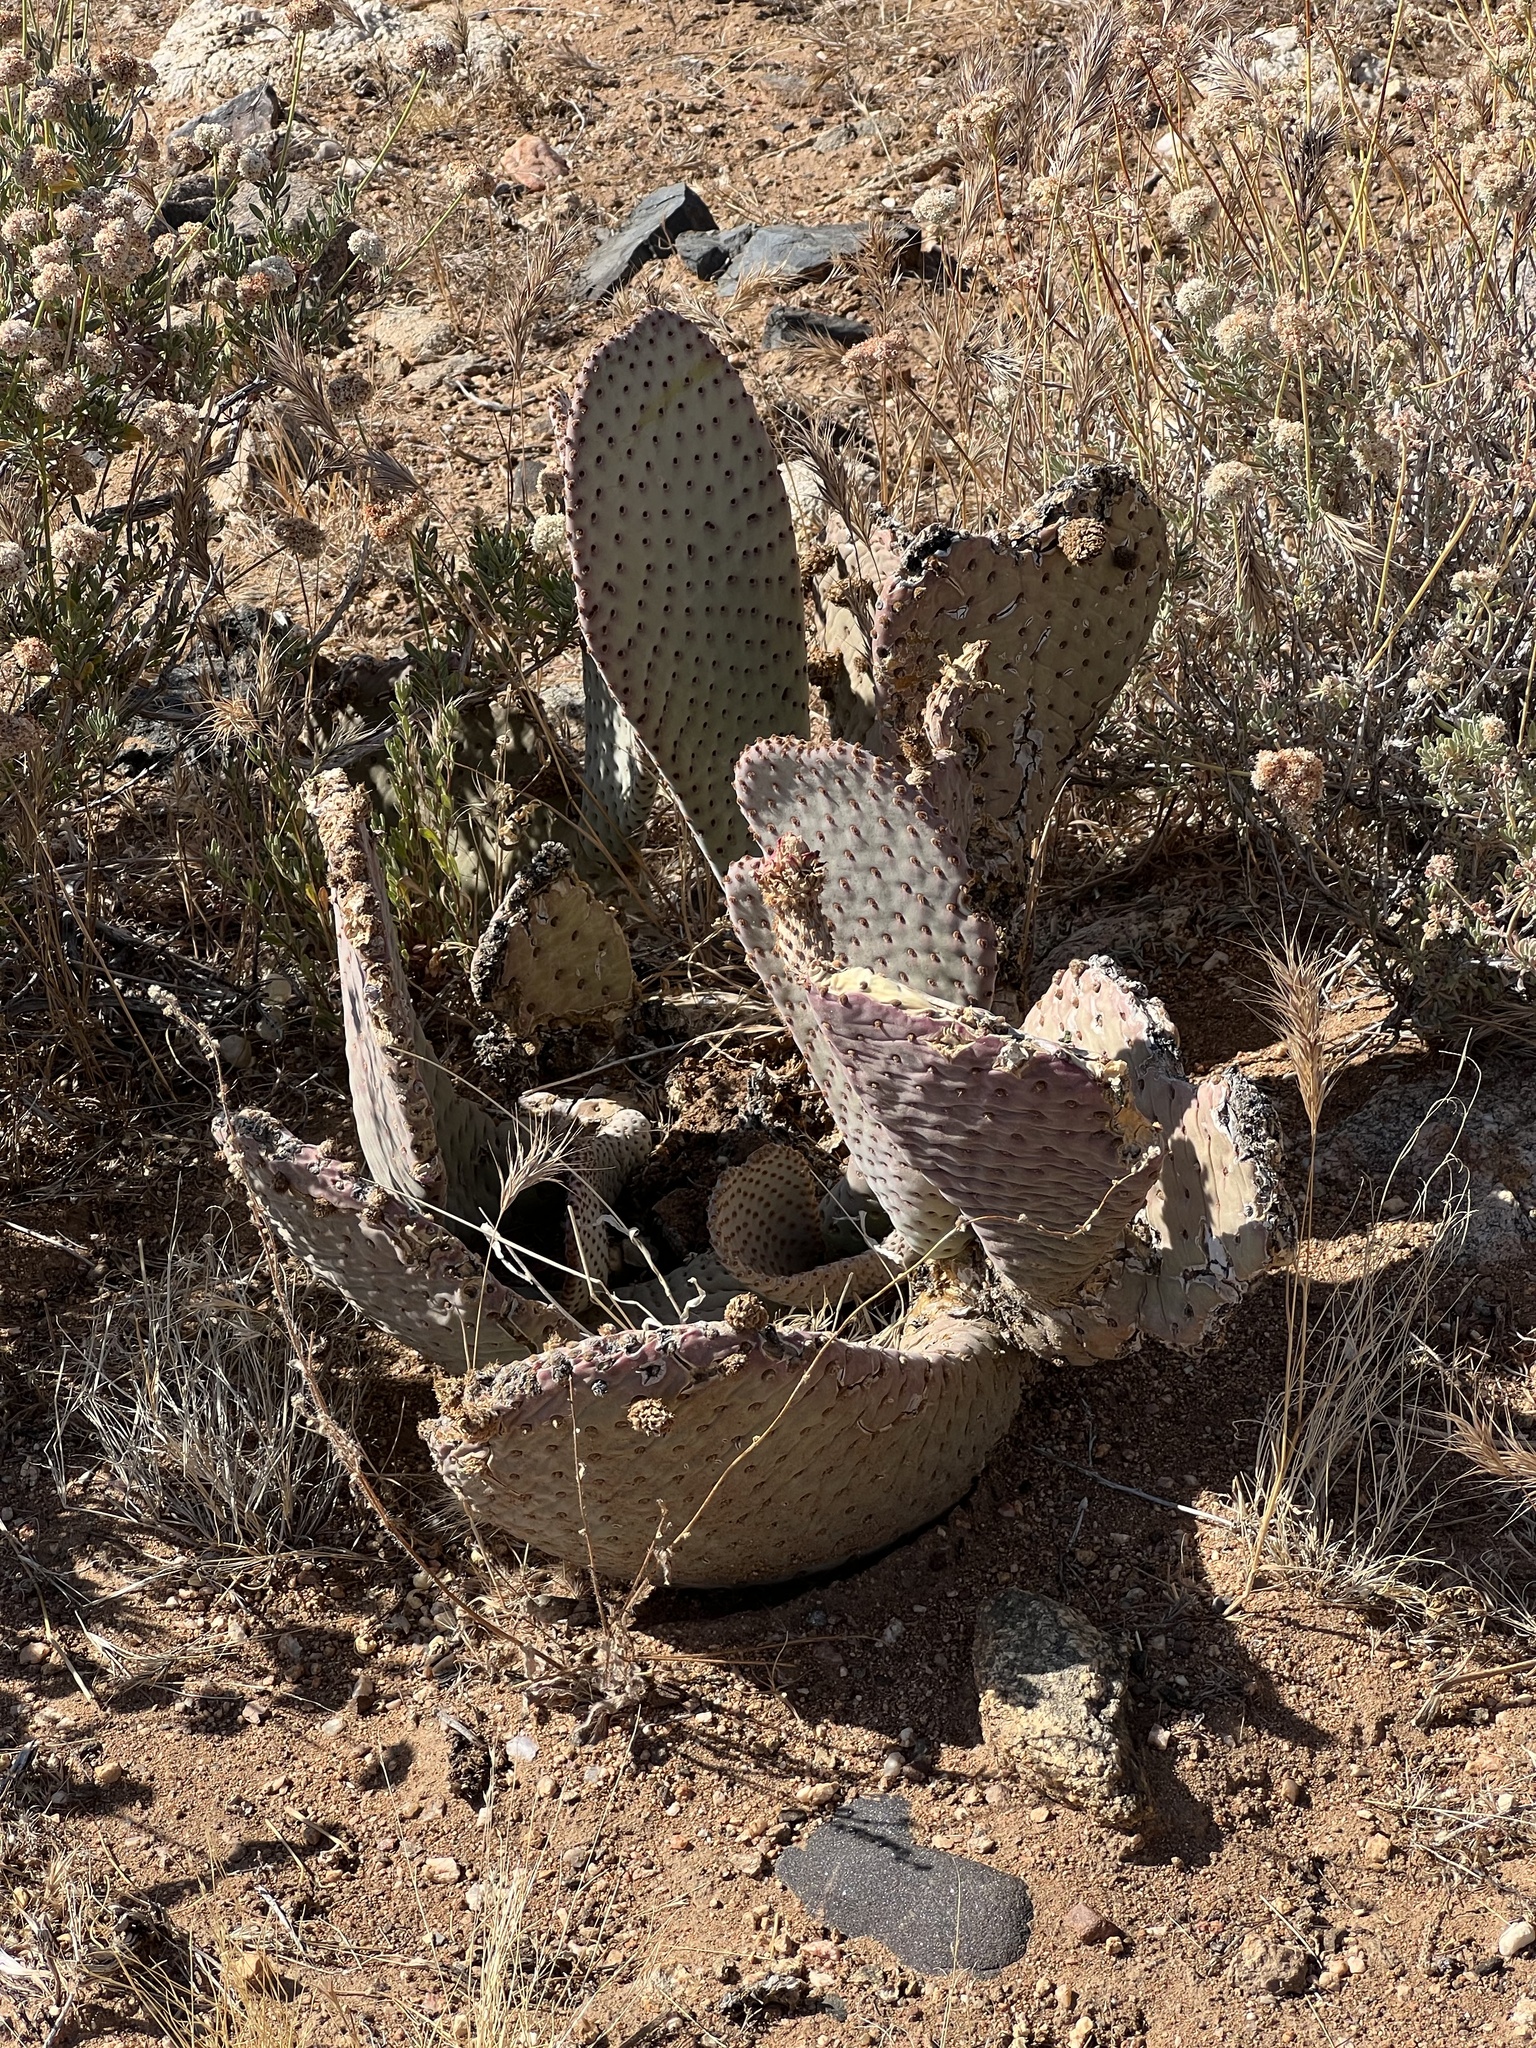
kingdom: Plantae
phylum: Tracheophyta
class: Magnoliopsida
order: Caryophyllales
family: Cactaceae
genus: Opuntia
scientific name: Opuntia basilaris
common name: Beavertail prickly-pear
